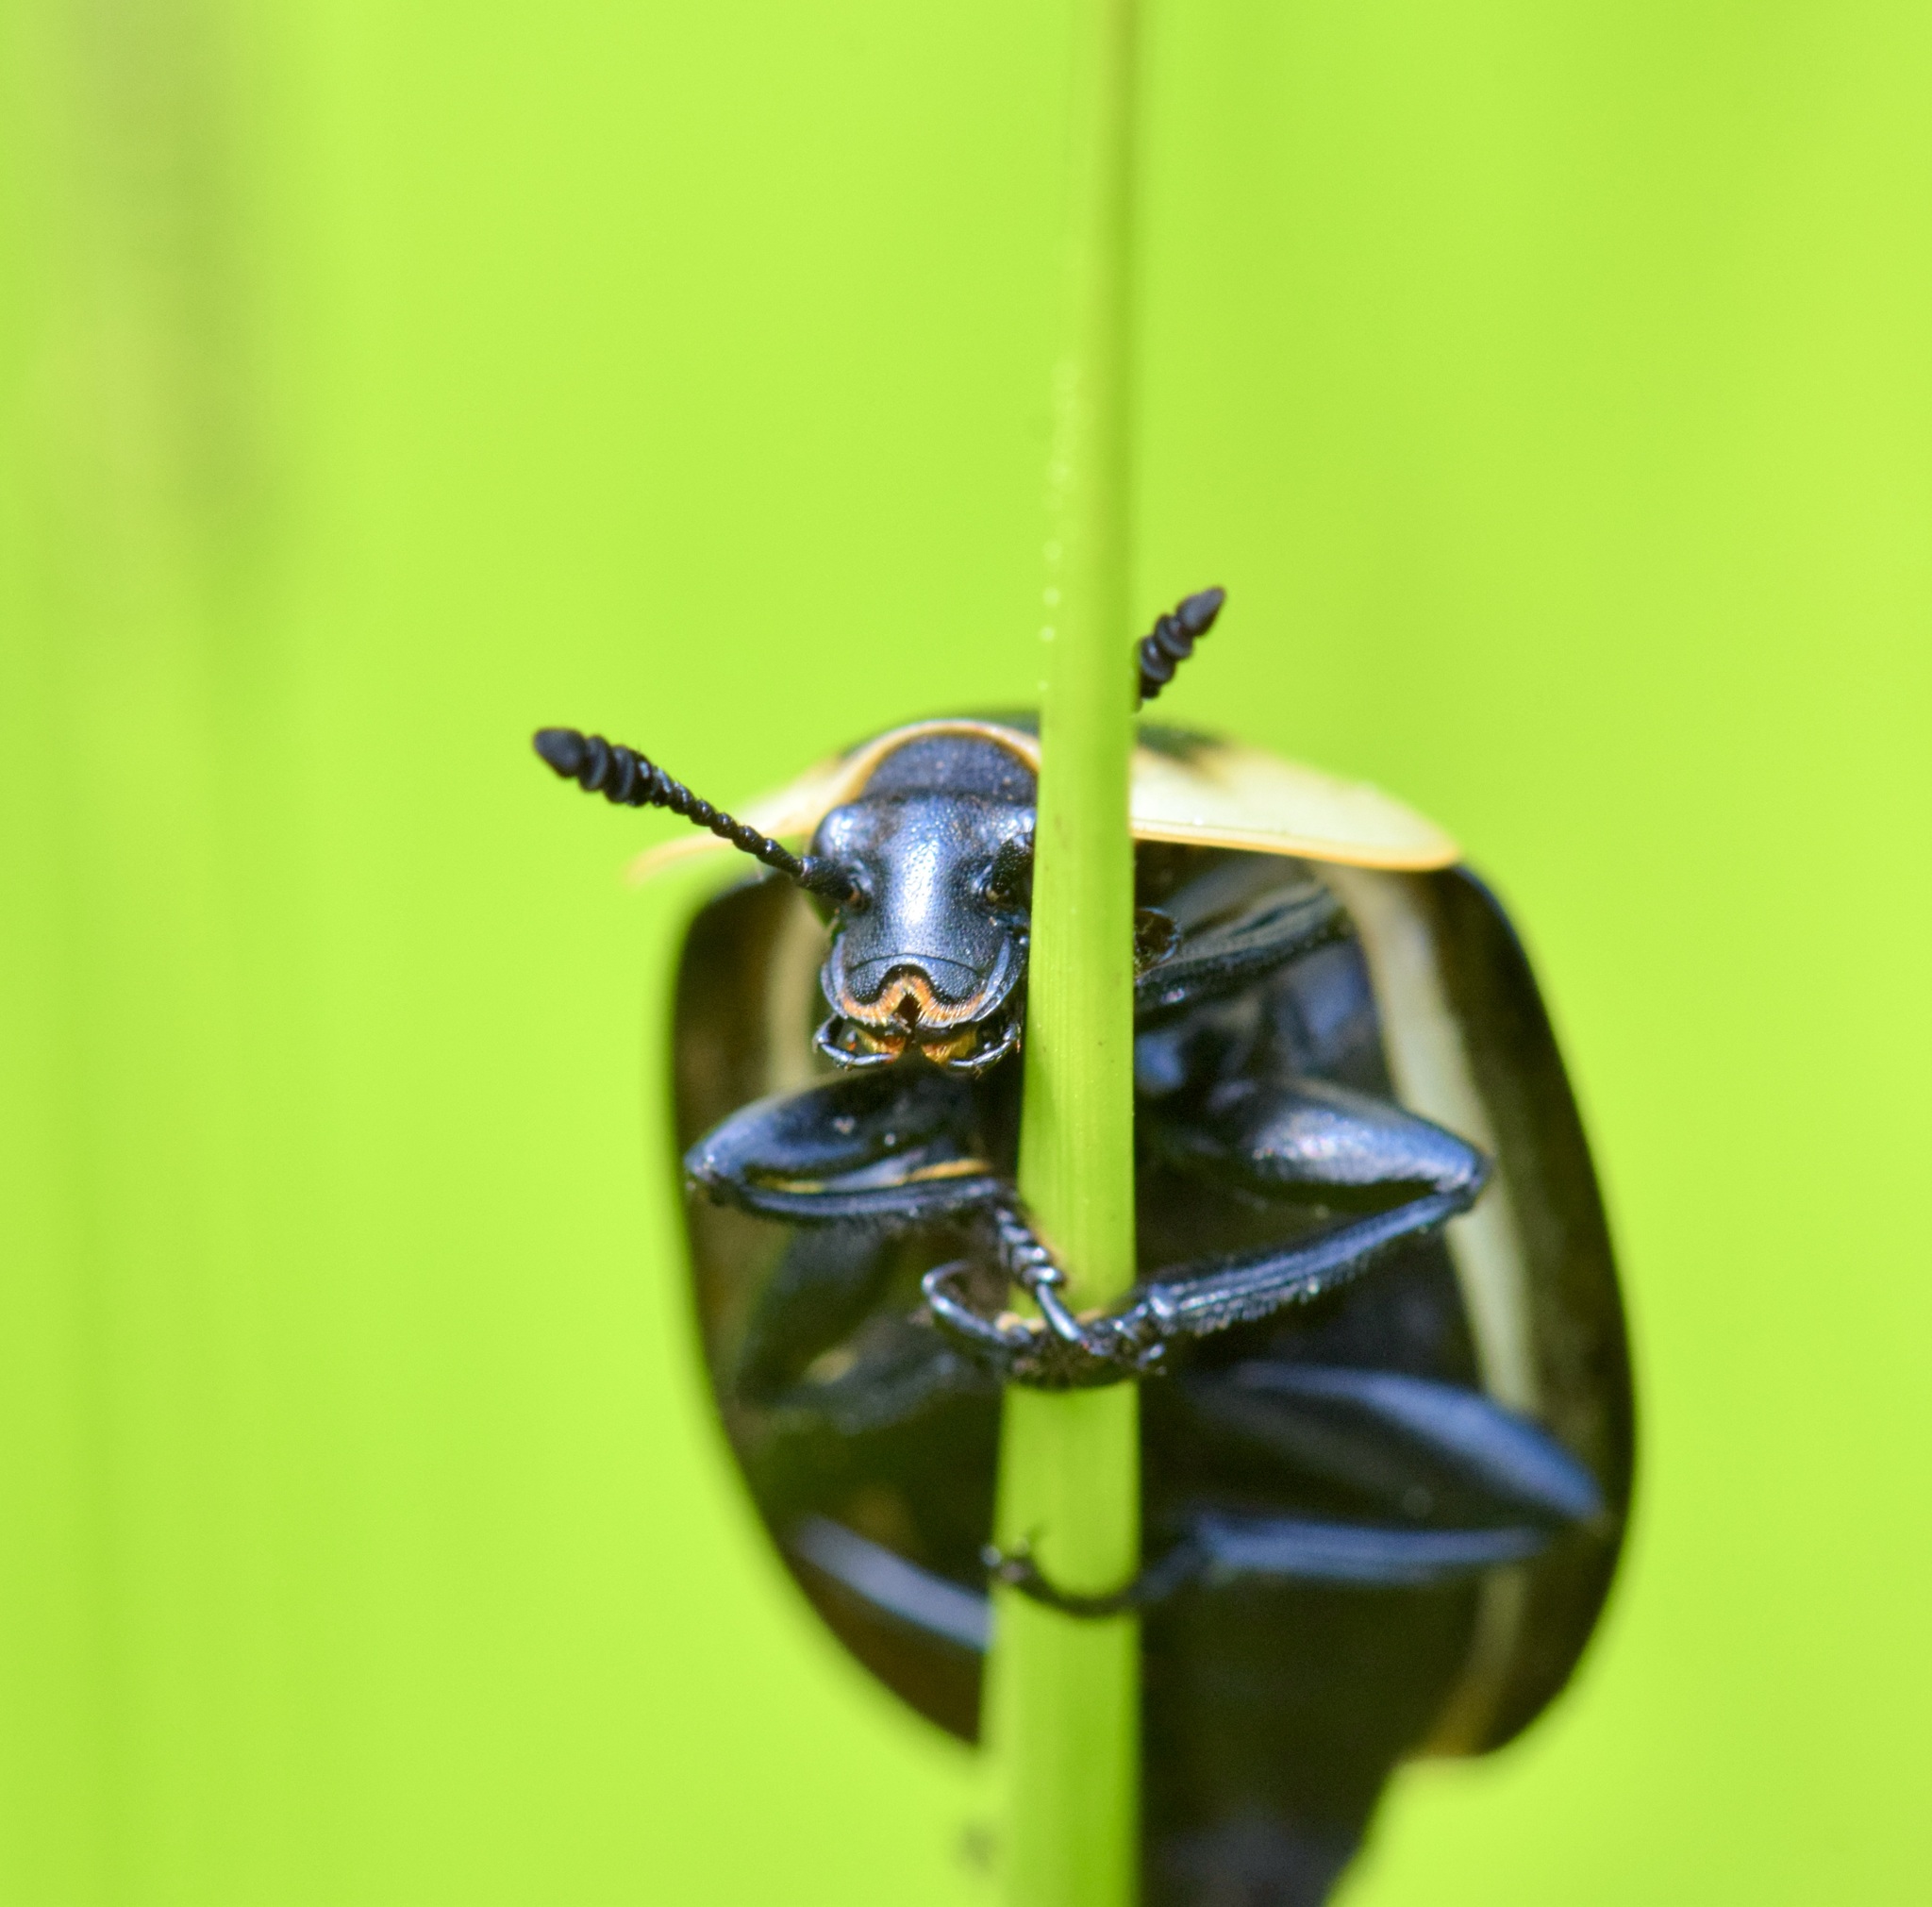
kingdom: Animalia
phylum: Arthropoda
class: Insecta
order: Coleoptera
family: Staphylinidae
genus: Necrophila
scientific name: Necrophila americana
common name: American carrion beetle
